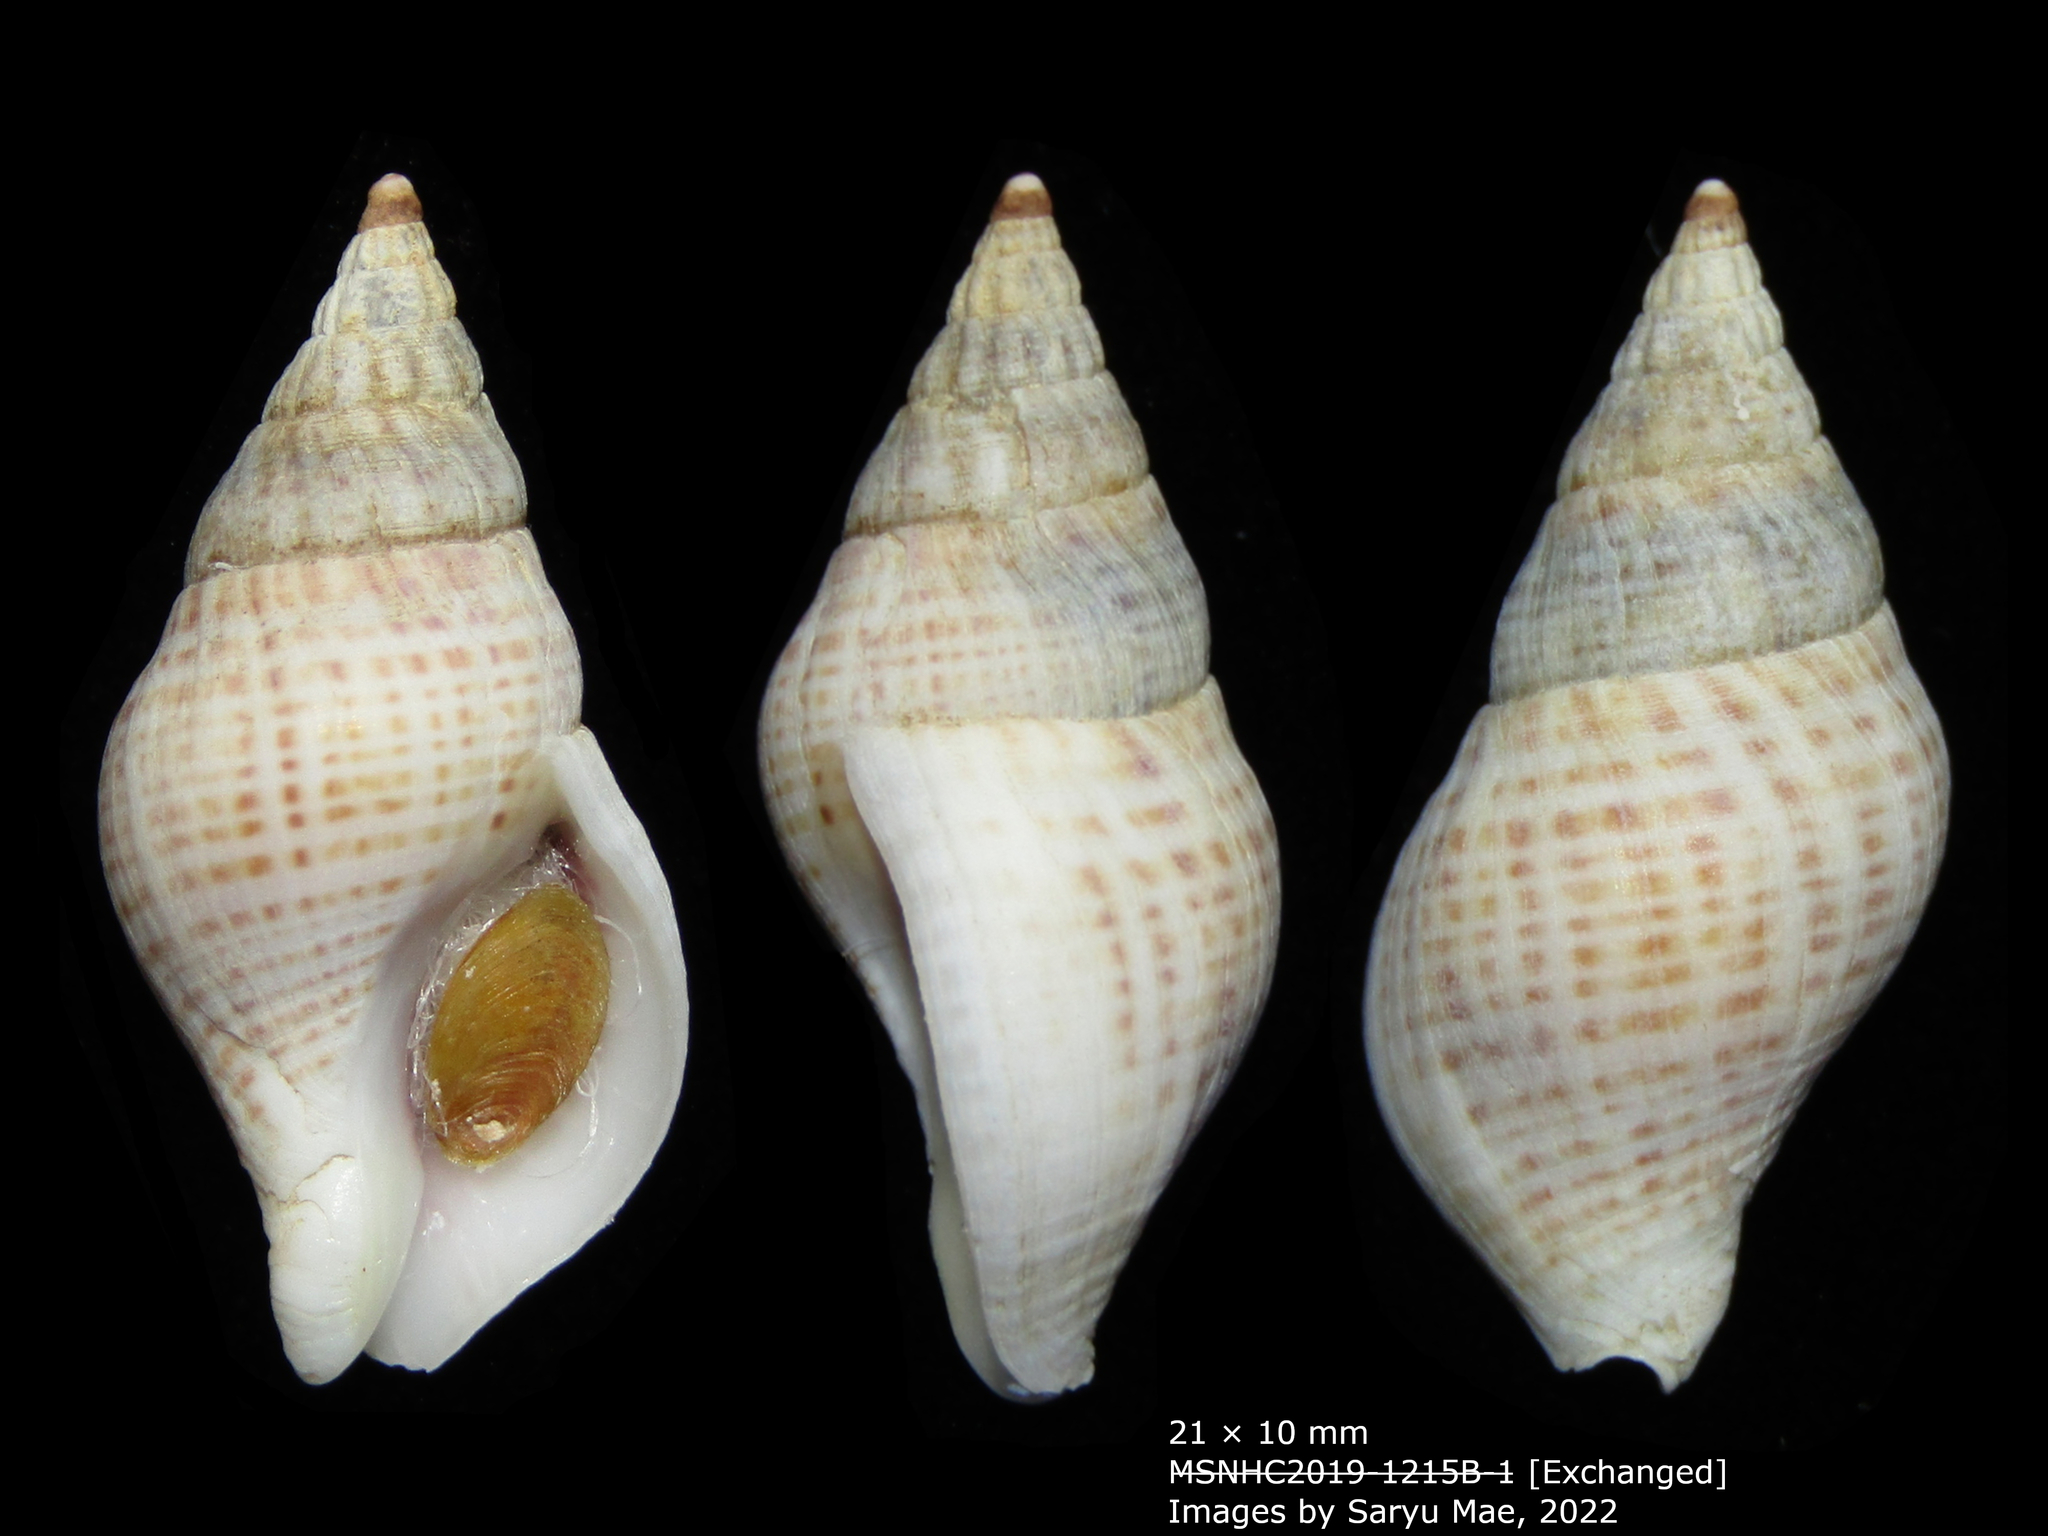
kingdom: Animalia
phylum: Mollusca
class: Gastropoda
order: Neogastropoda
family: Tudiclidae
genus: Buccinulum
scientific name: Buccinulum vittatum
